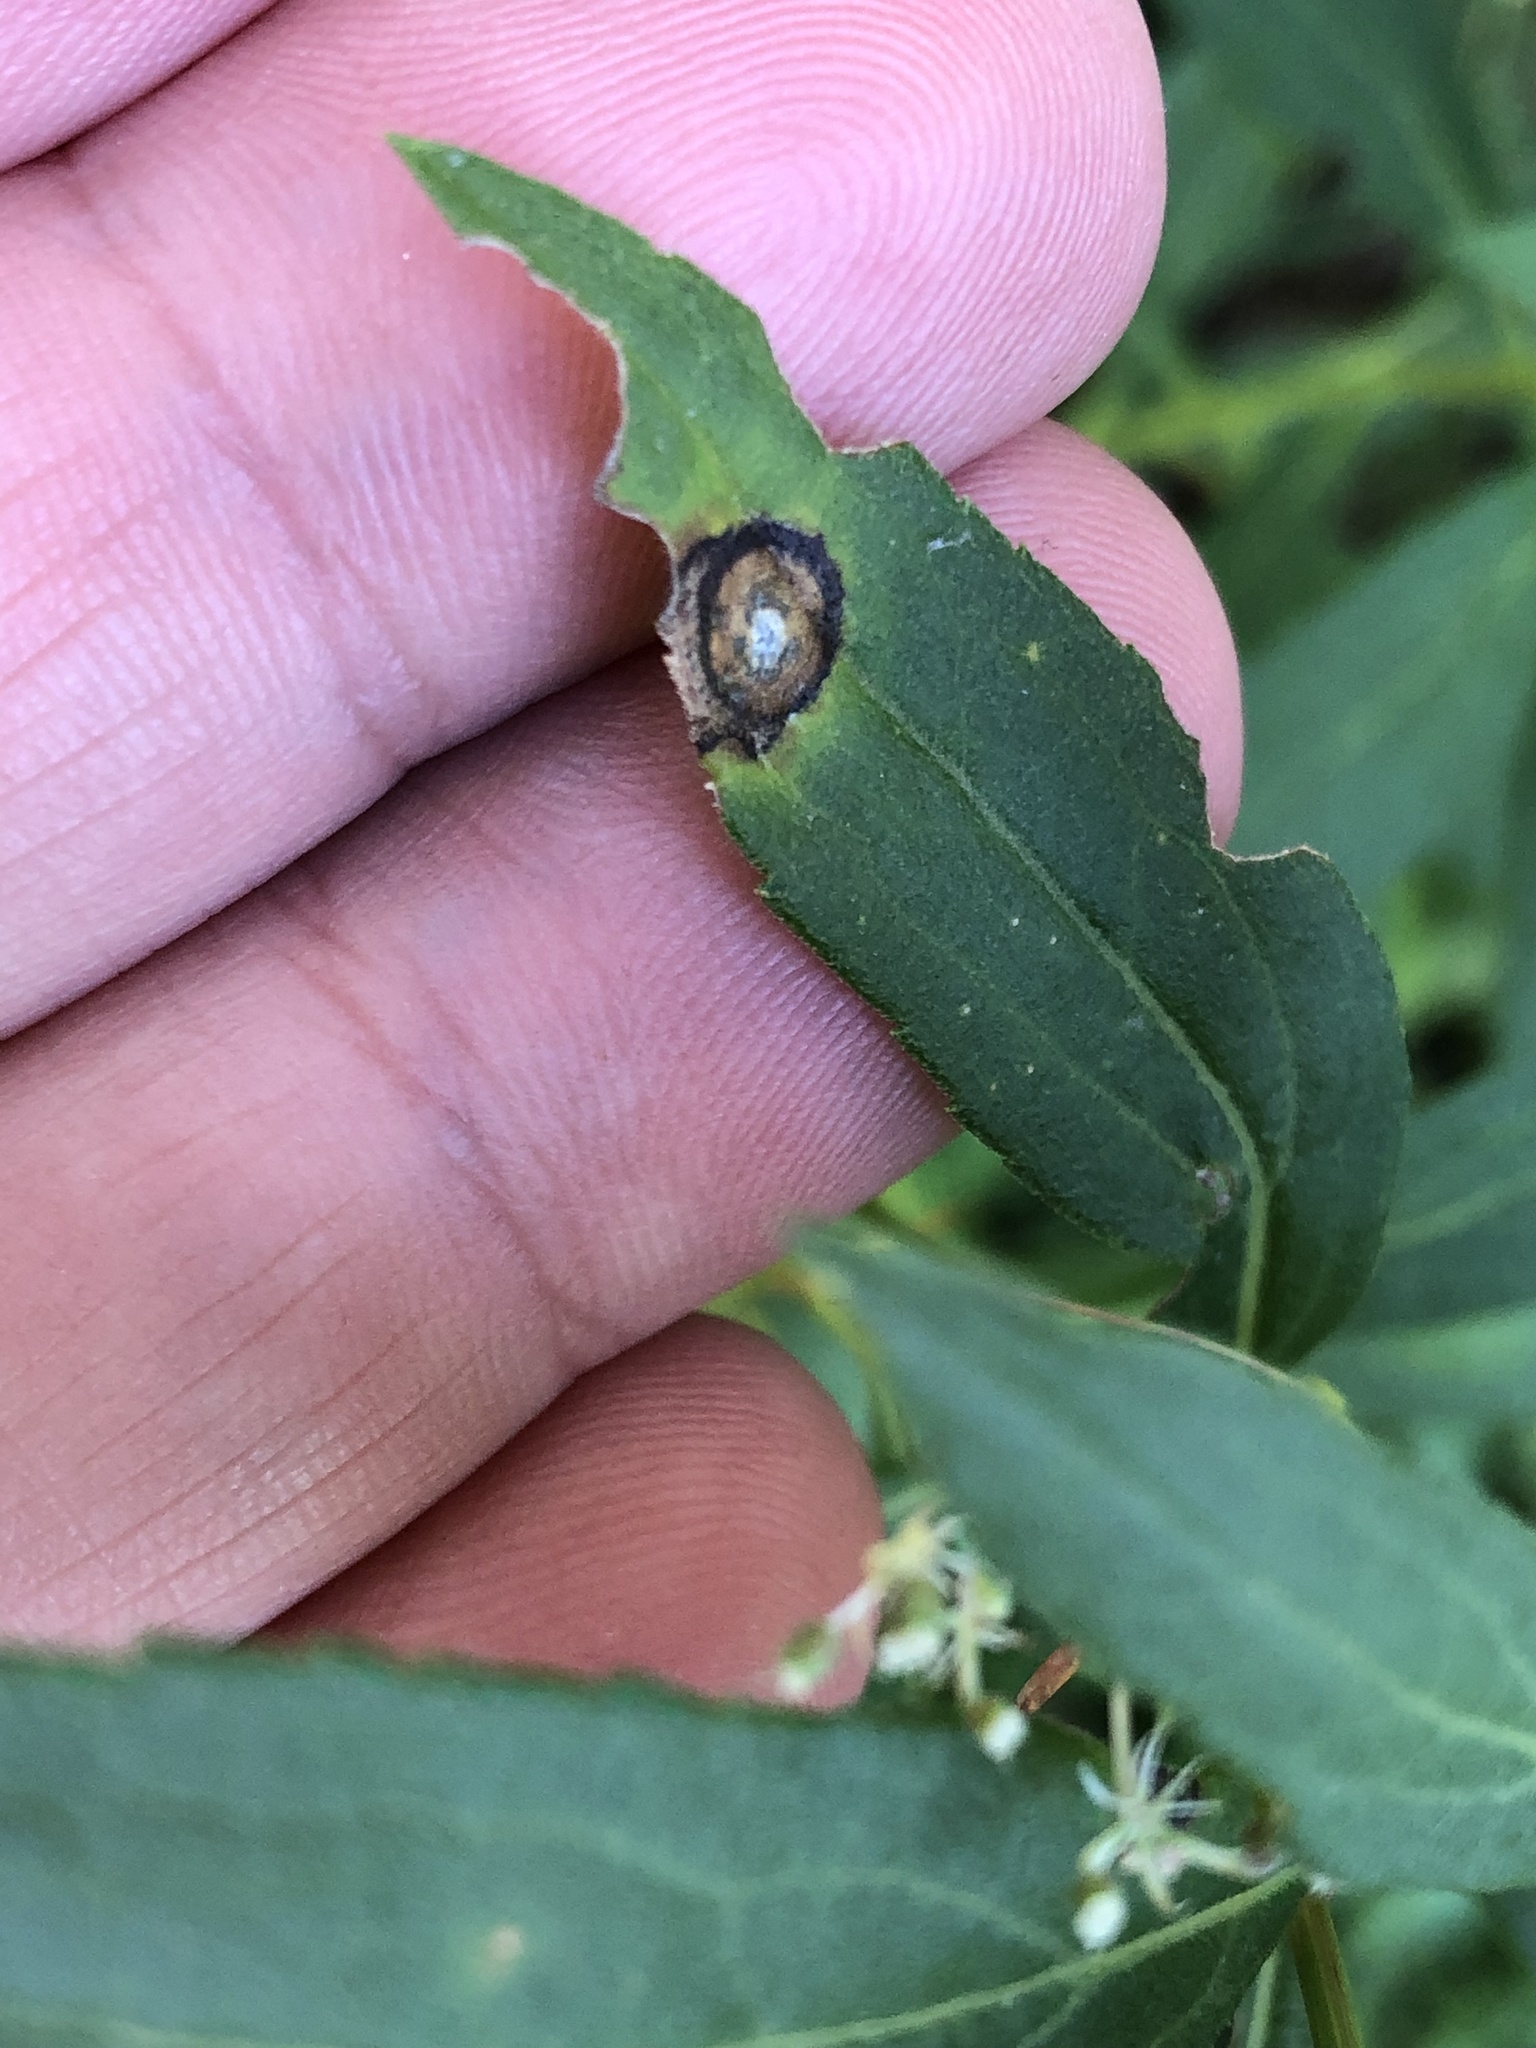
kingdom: Animalia
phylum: Arthropoda
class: Insecta
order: Diptera
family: Cecidomyiidae
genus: Asteromyia
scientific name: Asteromyia carbonifera
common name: Carbonifera goldenrod gall midge
